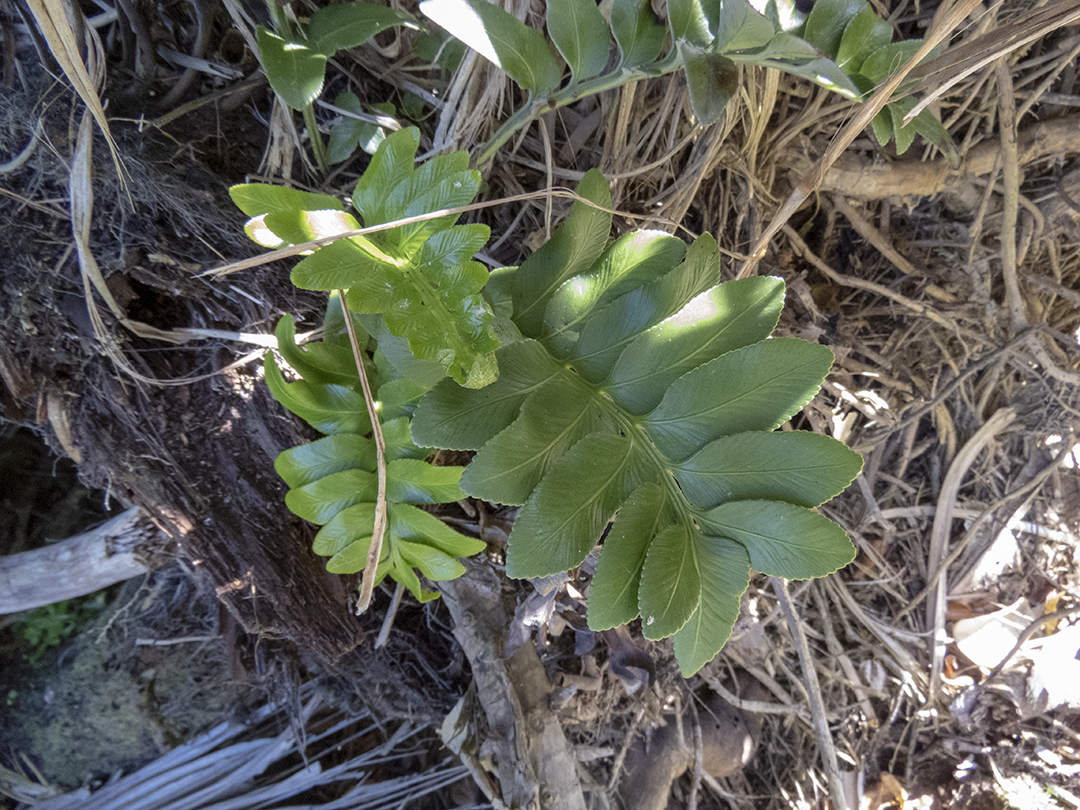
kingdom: Plantae
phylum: Tracheophyta
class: Polypodiopsida
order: Polypodiales
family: Aspleniaceae
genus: Asplenium
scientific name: Asplenium obtusatum
